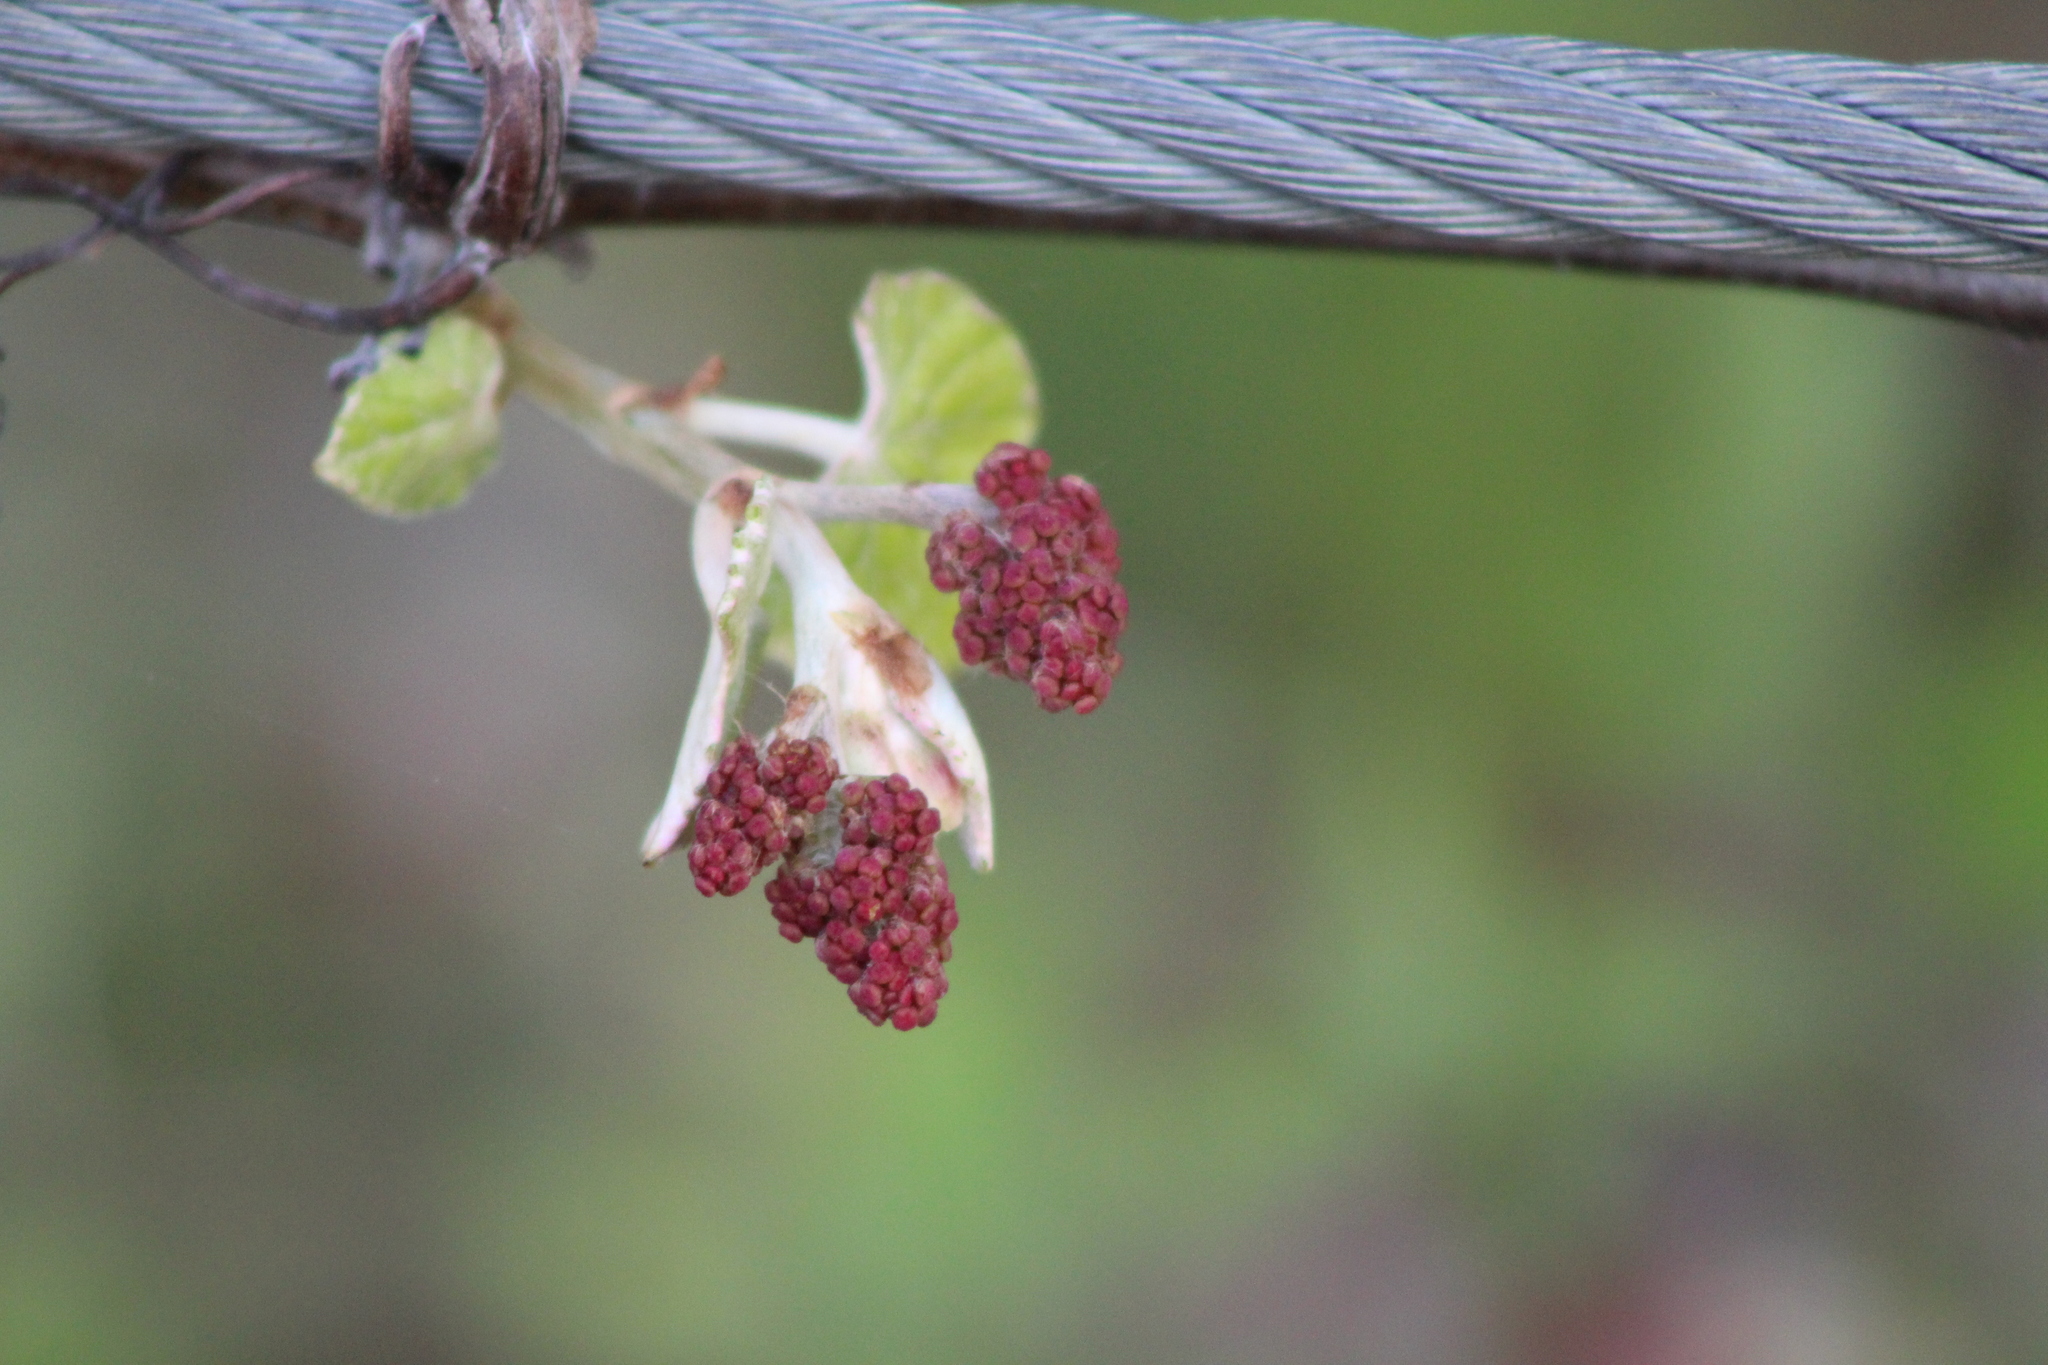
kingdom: Plantae
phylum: Tracheophyta
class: Magnoliopsida
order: Vitales
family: Vitaceae
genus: Vitis
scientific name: Vitis mustangensis
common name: Mustang grape
